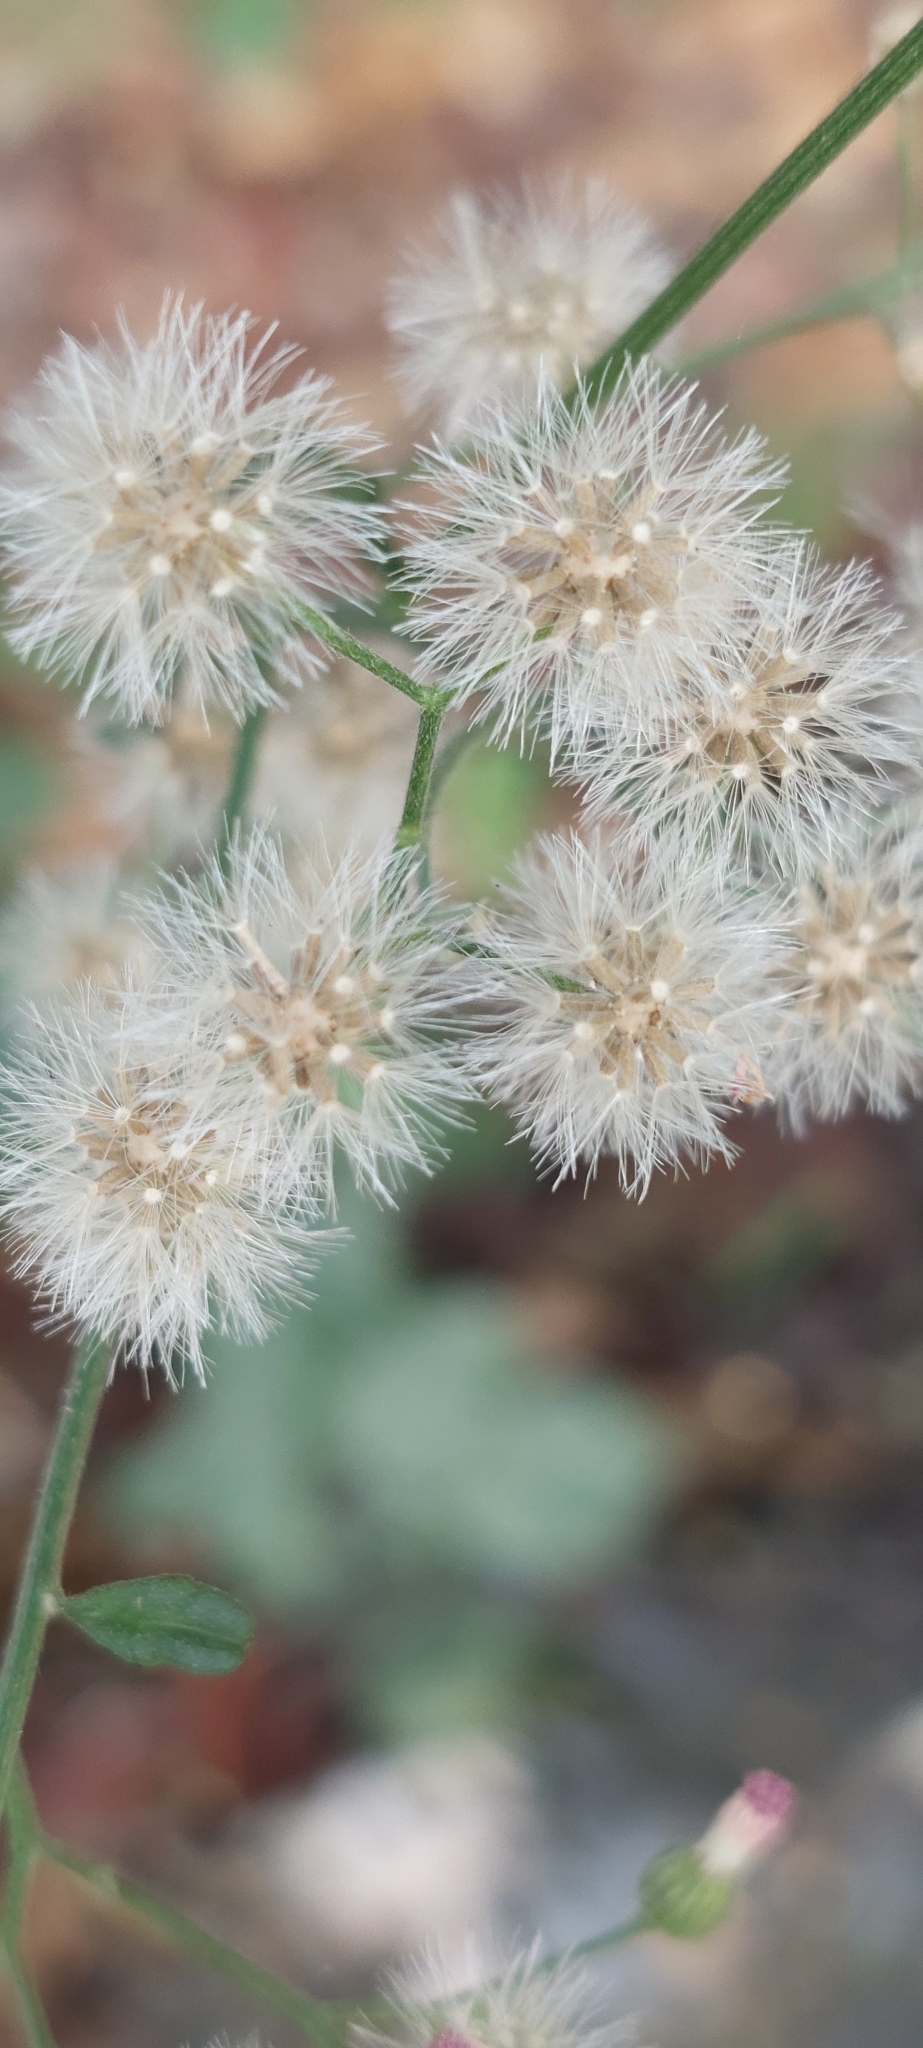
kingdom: Plantae
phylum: Tracheophyta
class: Magnoliopsida
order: Asterales
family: Asteraceae
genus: Cyanthillium
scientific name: Cyanthillium cinereum
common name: Little ironweed
